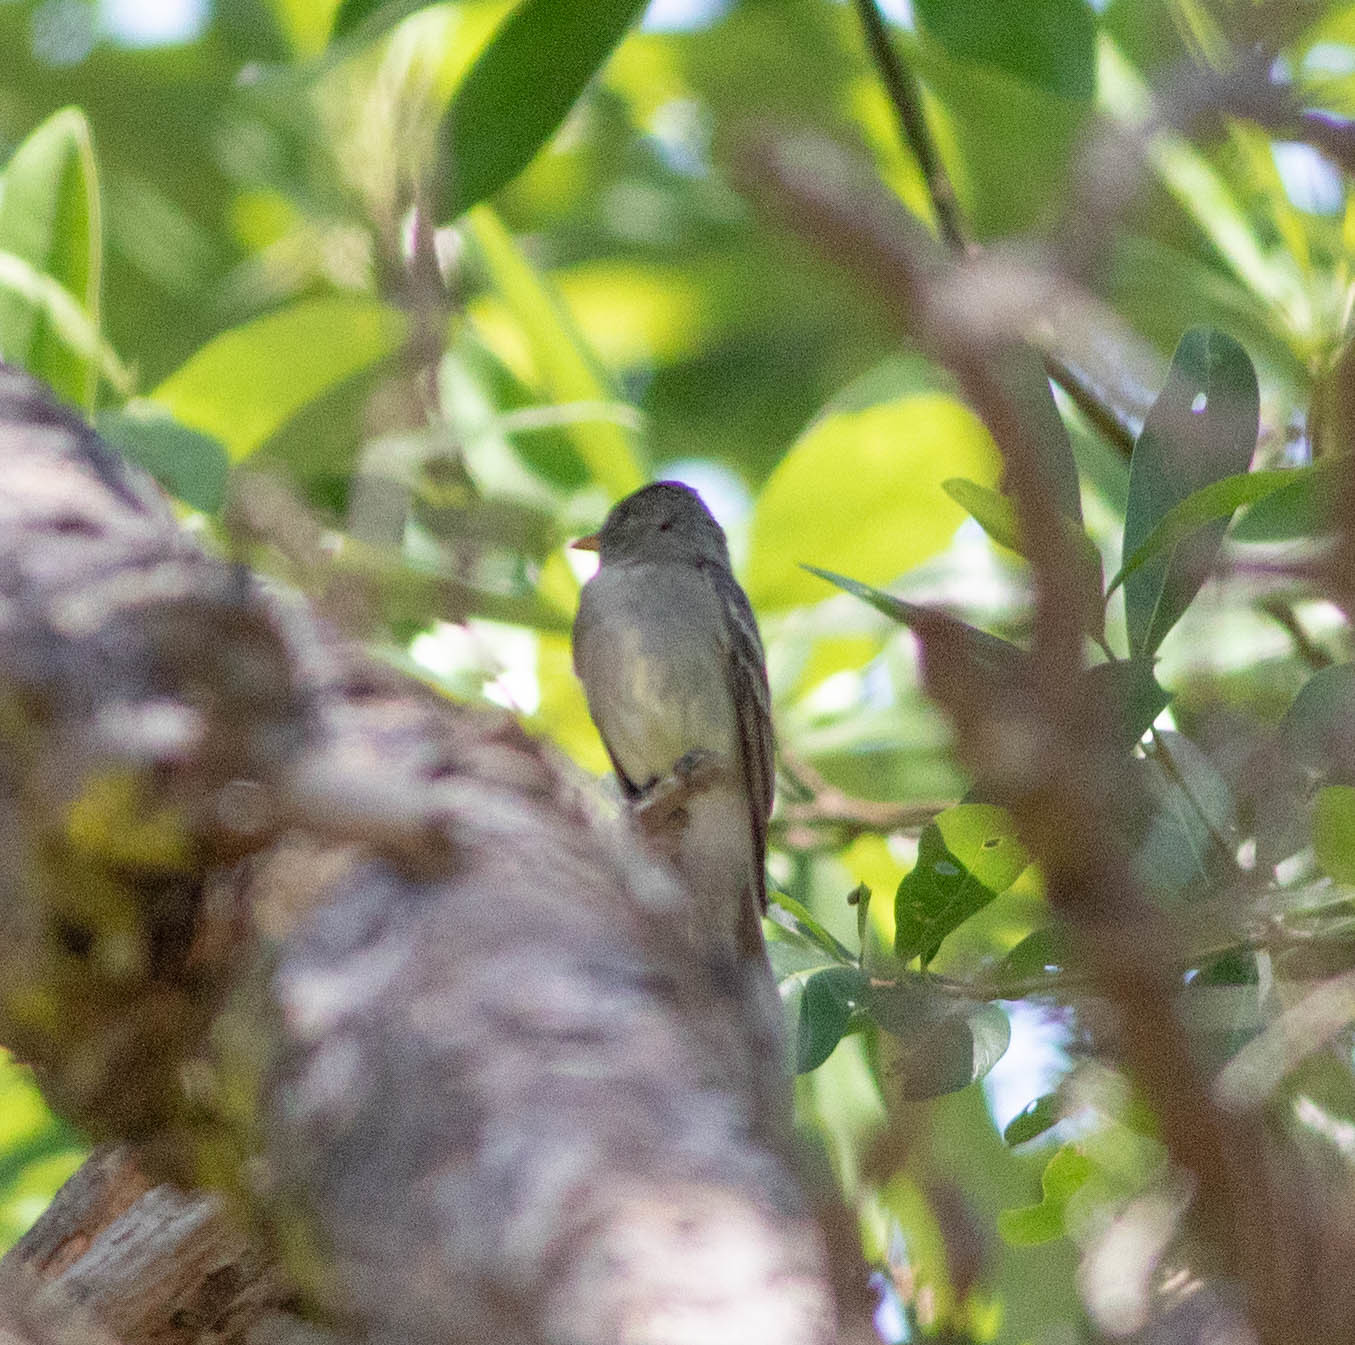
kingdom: Animalia
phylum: Chordata
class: Aves
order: Passeriformes
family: Tyrannidae
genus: Contopus
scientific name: Contopus virens
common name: Eastern wood-pewee
